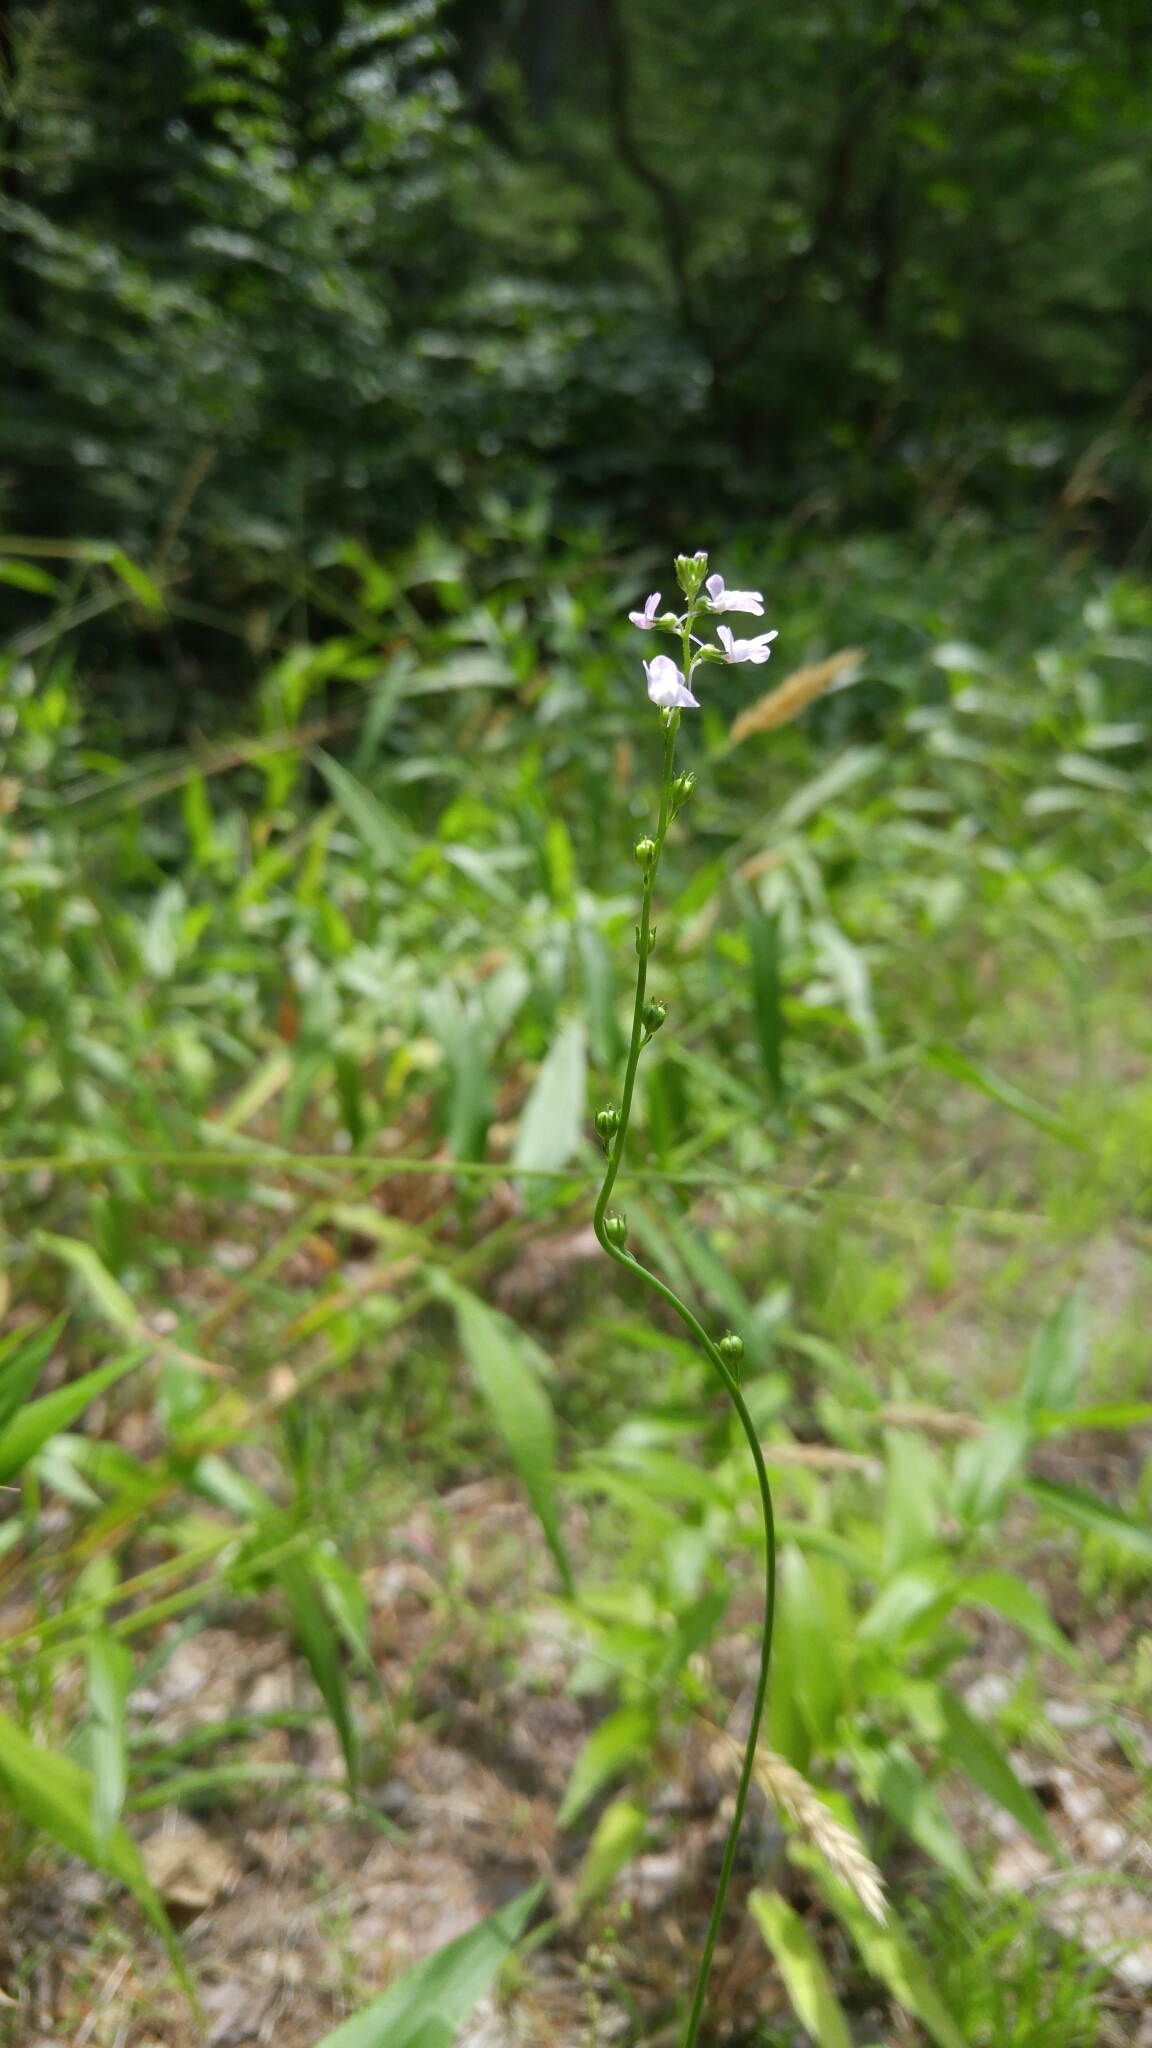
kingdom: Plantae
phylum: Tracheophyta
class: Magnoliopsida
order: Lamiales
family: Plantaginaceae
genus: Nuttallanthus
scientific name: Nuttallanthus canadensis
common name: Blue toadflax
